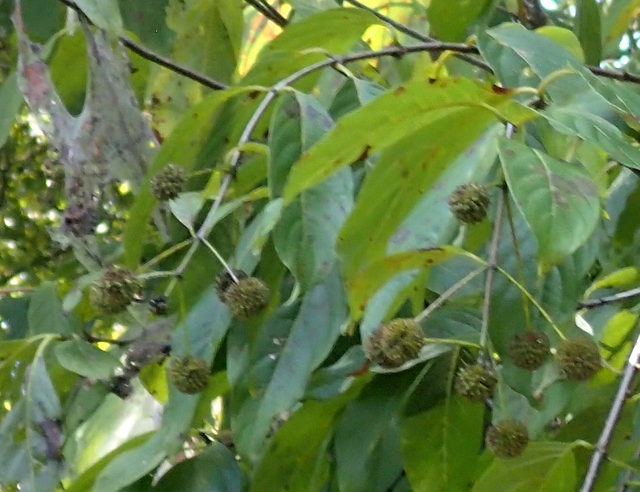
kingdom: Plantae
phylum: Tracheophyta
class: Magnoliopsida
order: Gentianales
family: Rubiaceae
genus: Cephalanthus
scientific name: Cephalanthus occidentalis
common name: Button-willow
